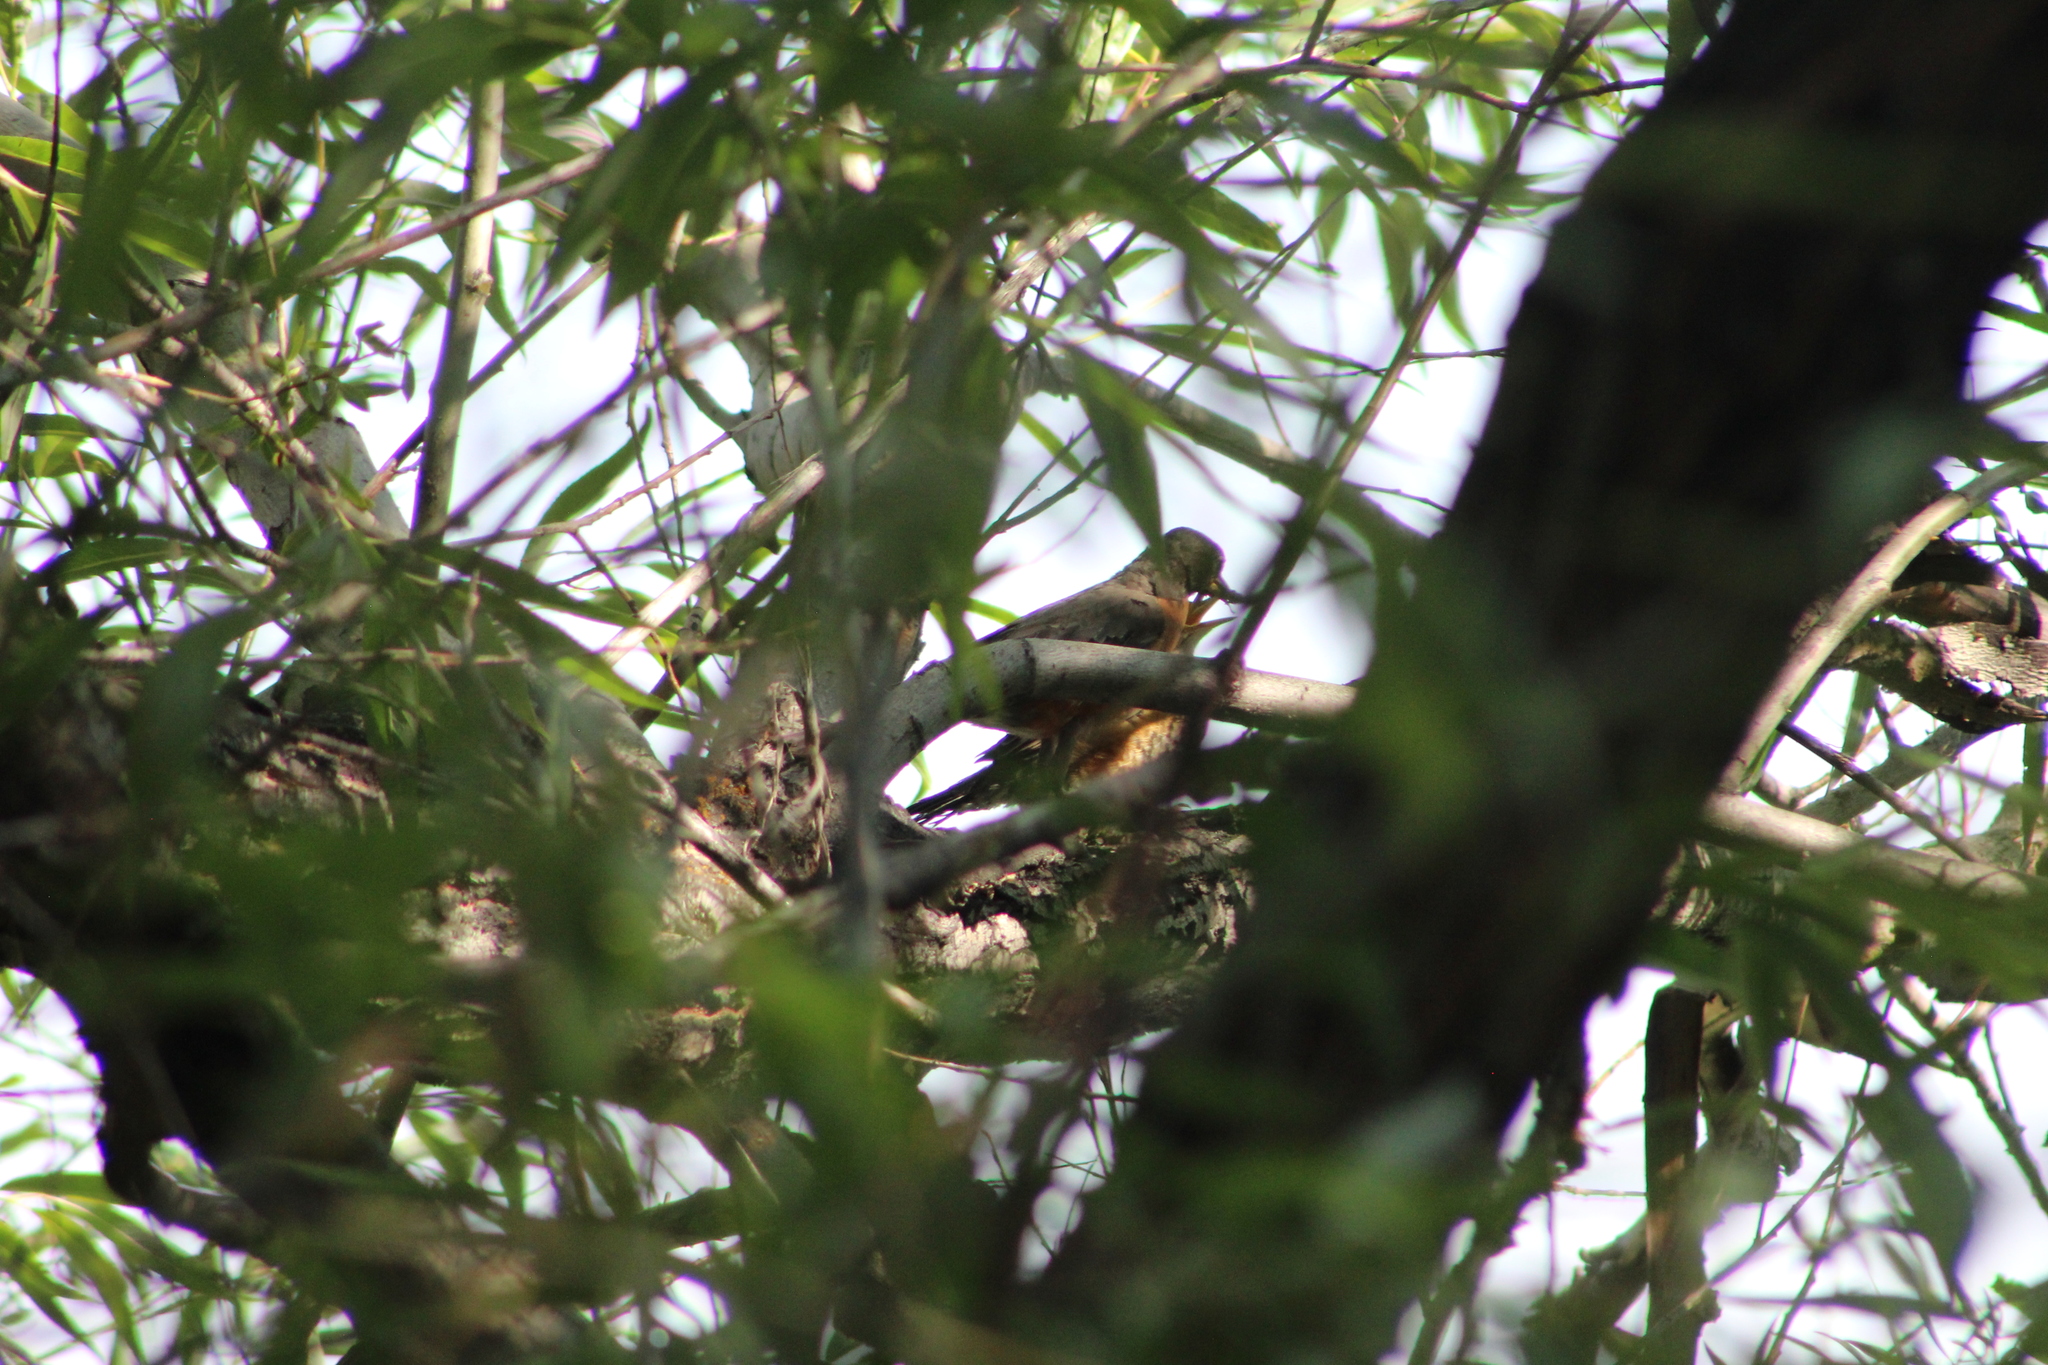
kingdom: Animalia
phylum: Chordata
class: Aves
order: Passeriformes
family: Turdidae
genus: Turdus
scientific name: Turdus migratorius
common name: American robin
